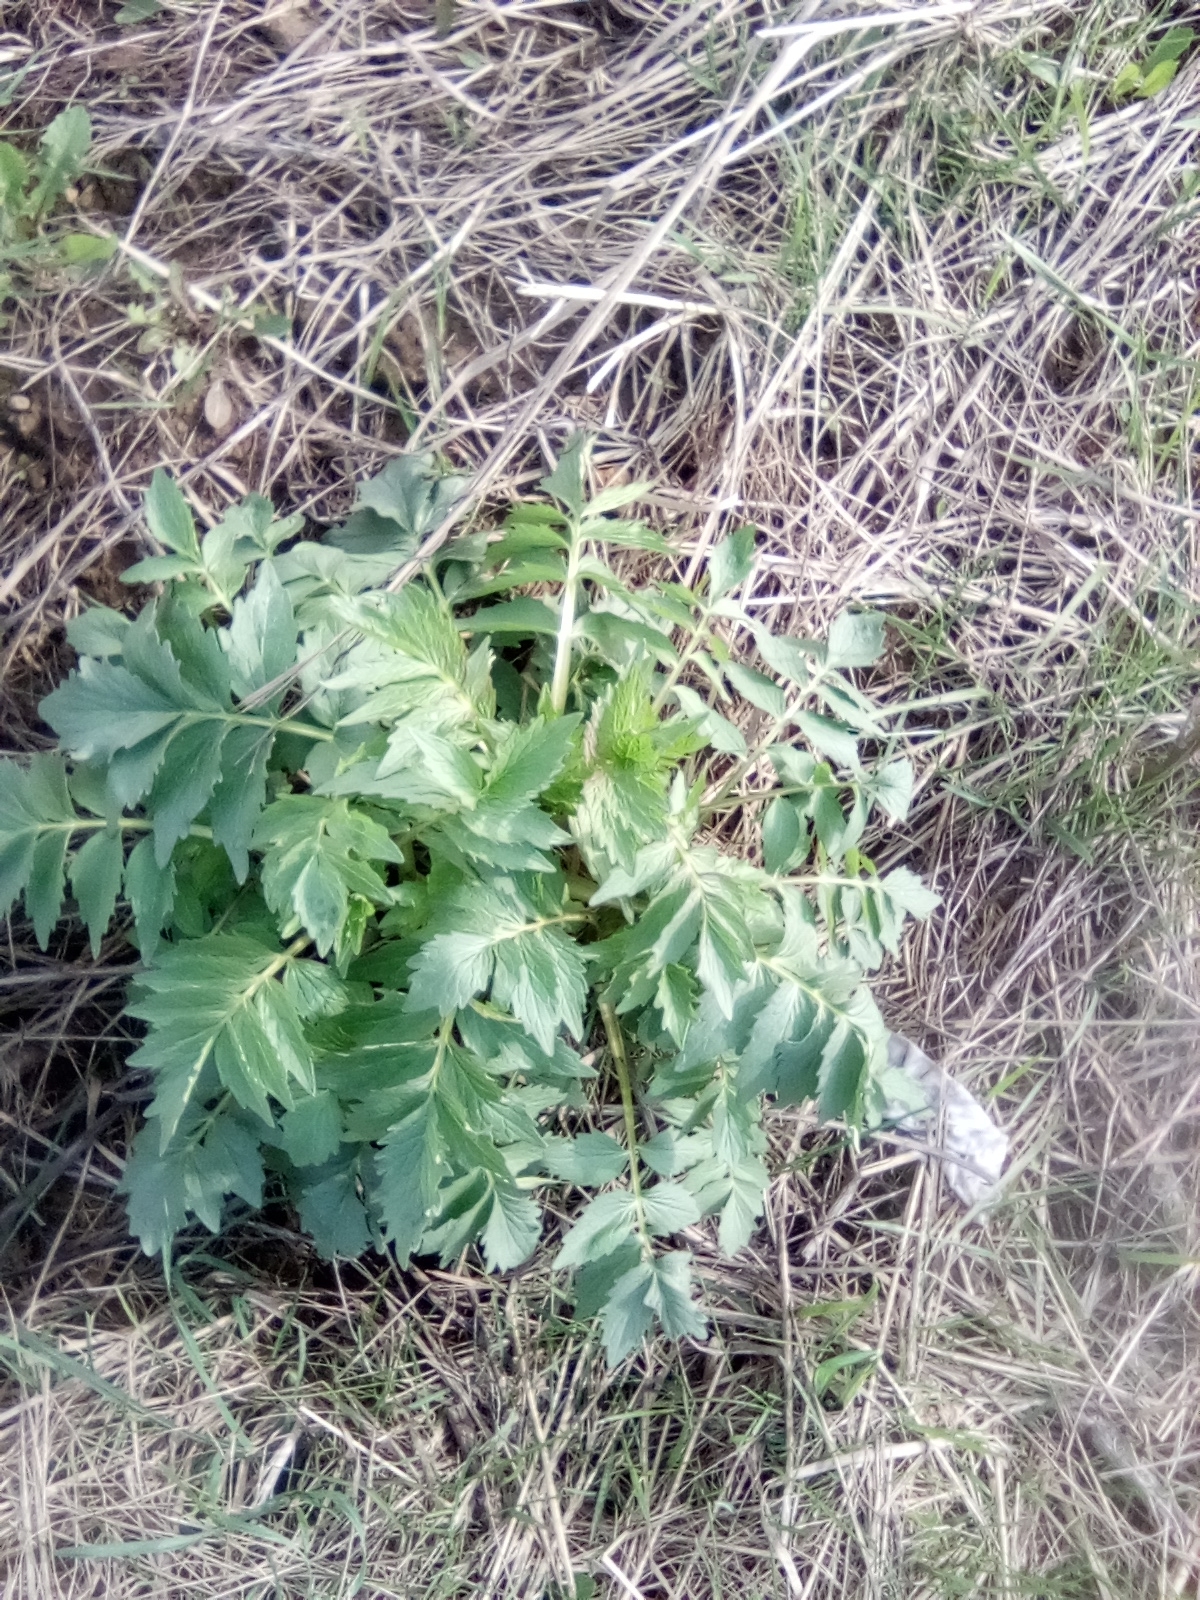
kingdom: Plantae
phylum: Tracheophyta
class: Magnoliopsida
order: Dipsacales
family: Caprifoliaceae
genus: Valeriana
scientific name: Valeriana officinalis
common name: Common valerian
